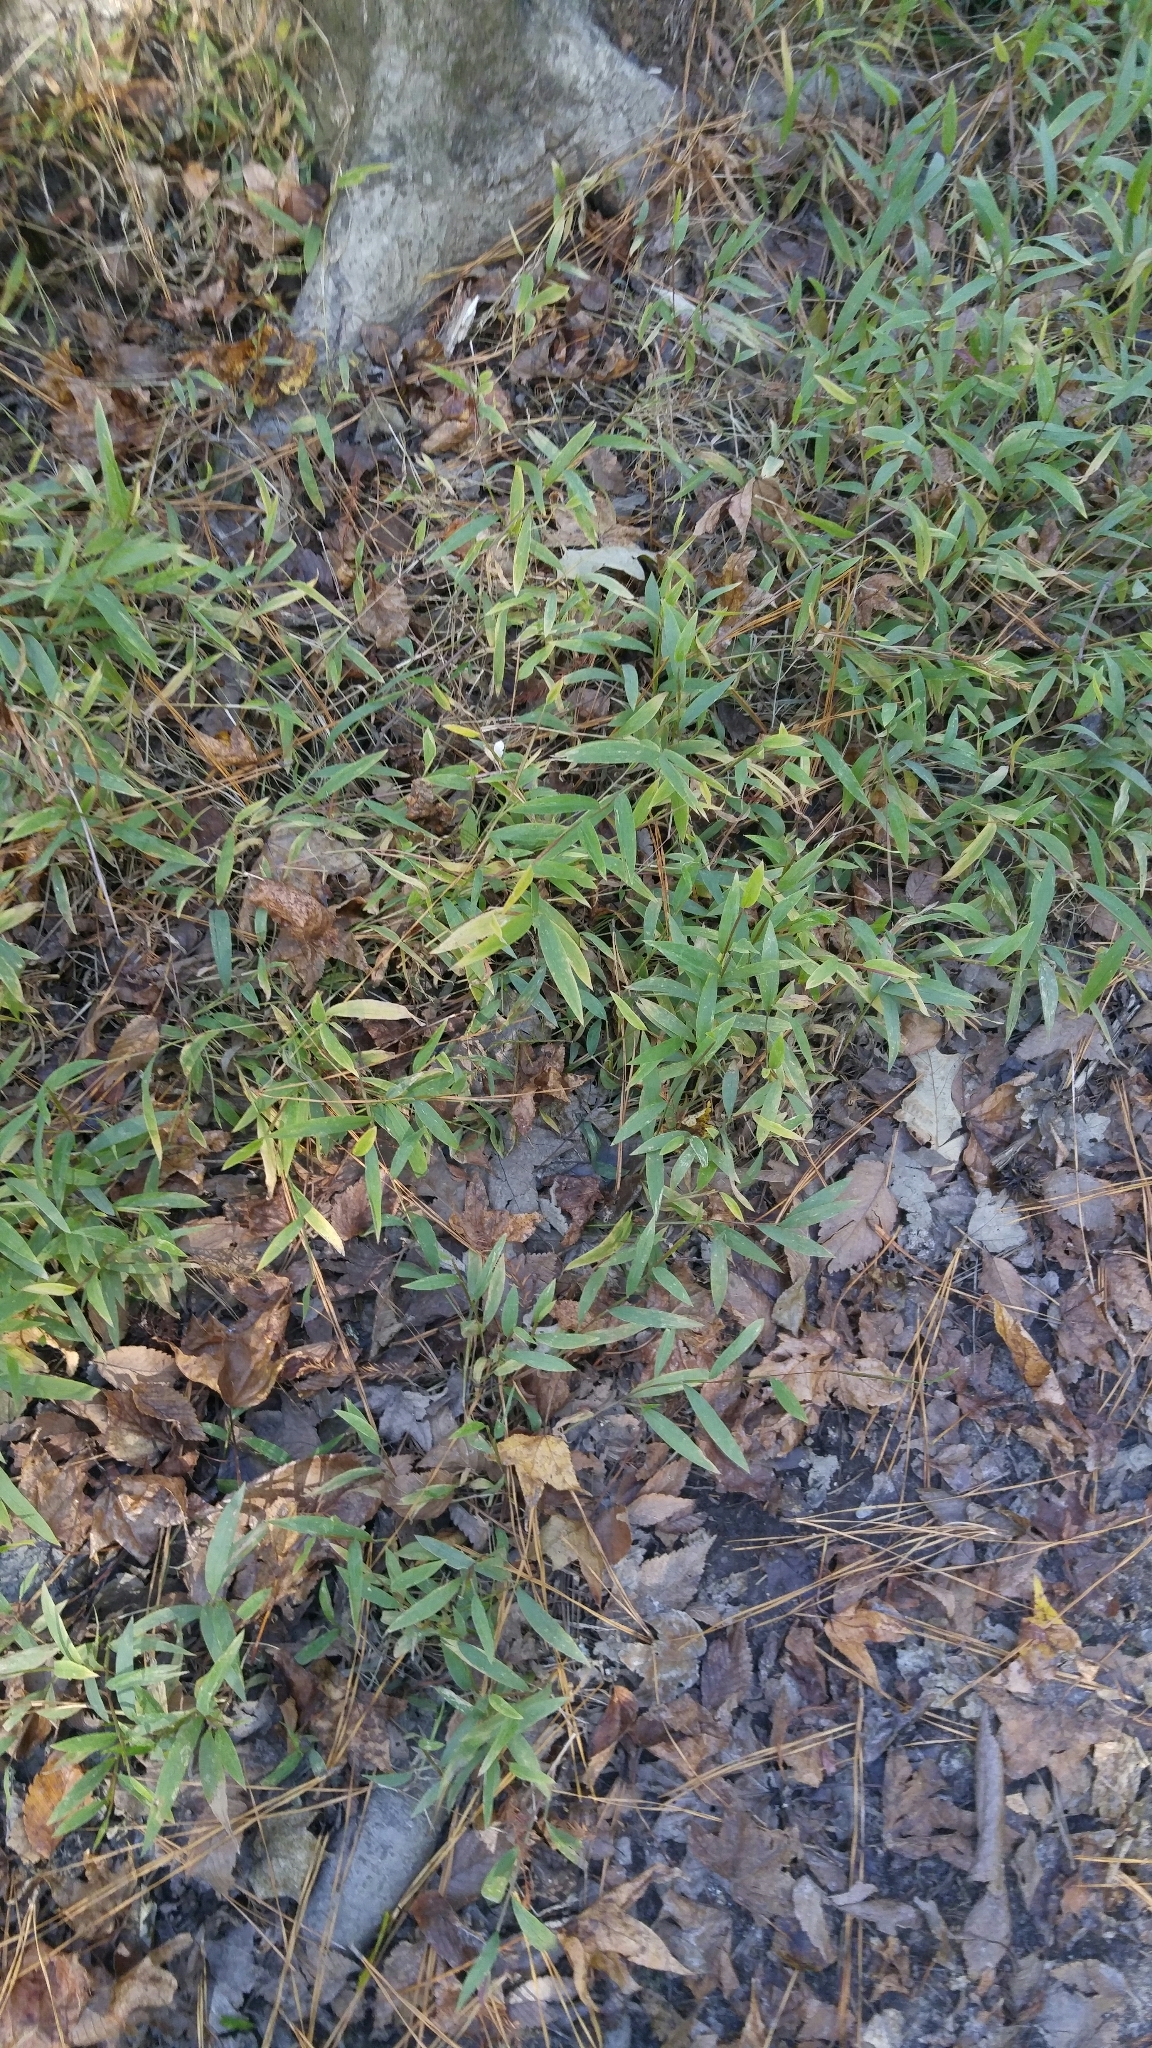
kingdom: Plantae
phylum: Tracheophyta
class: Liliopsida
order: Poales
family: Poaceae
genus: Microstegium
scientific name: Microstegium vimineum
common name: Japanese stiltgrass
